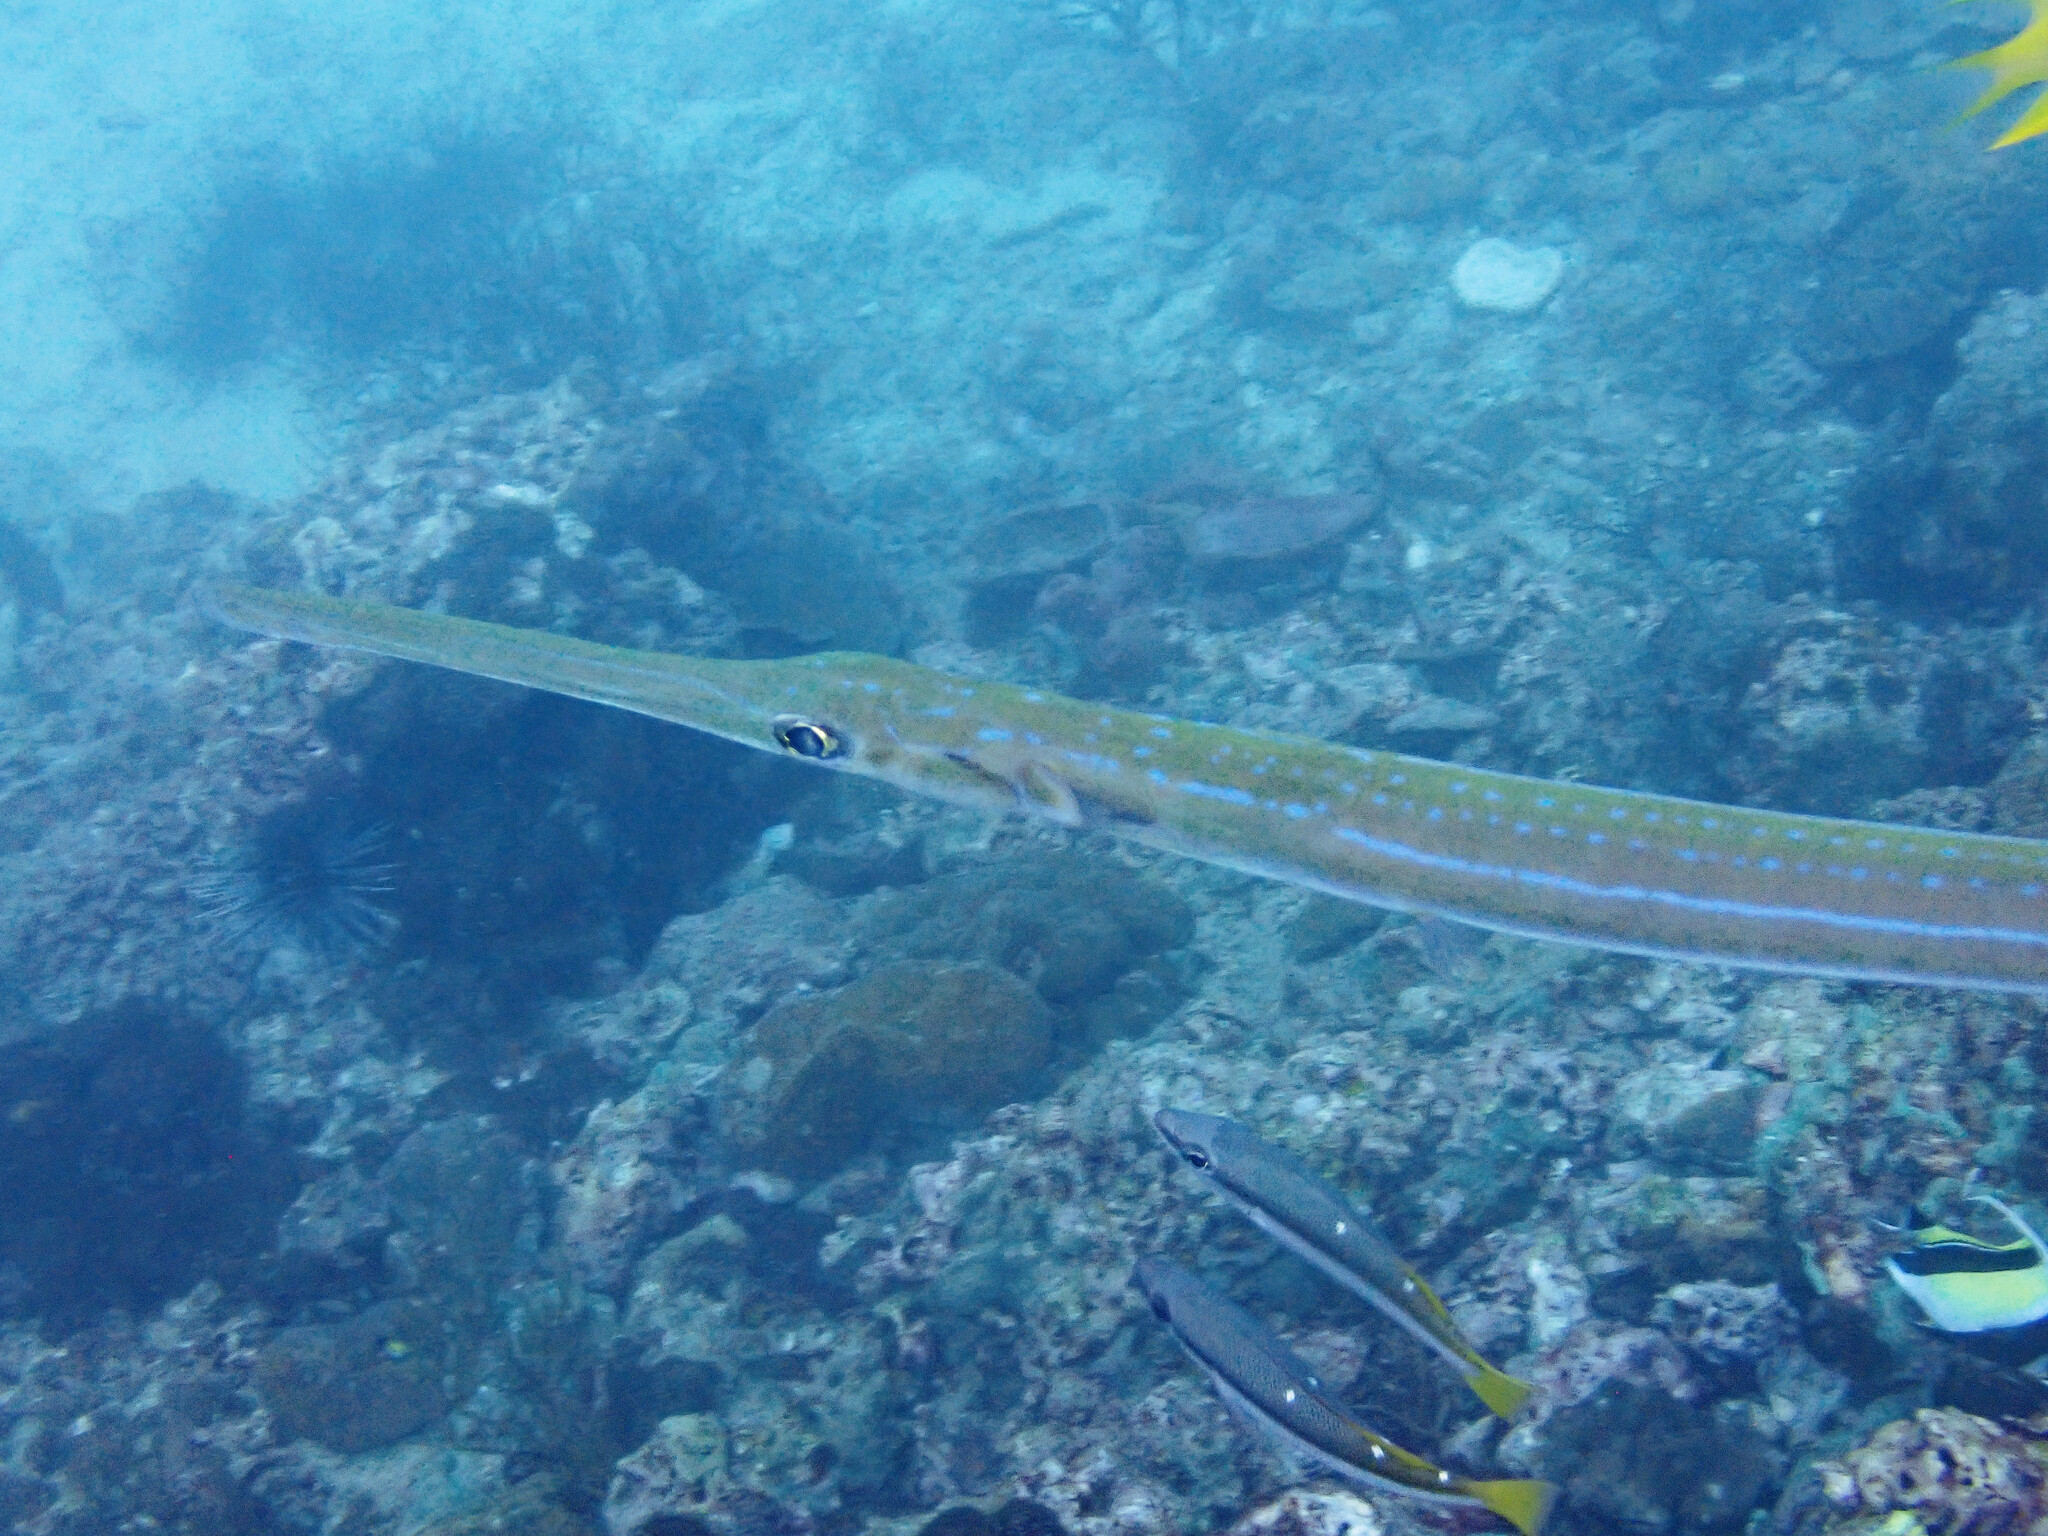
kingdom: Animalia
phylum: Chordata
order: Syngnathiformes
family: Fistulariidae
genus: Fistularia
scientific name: Fistularia commersonii
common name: Bluespotted cornetfish
